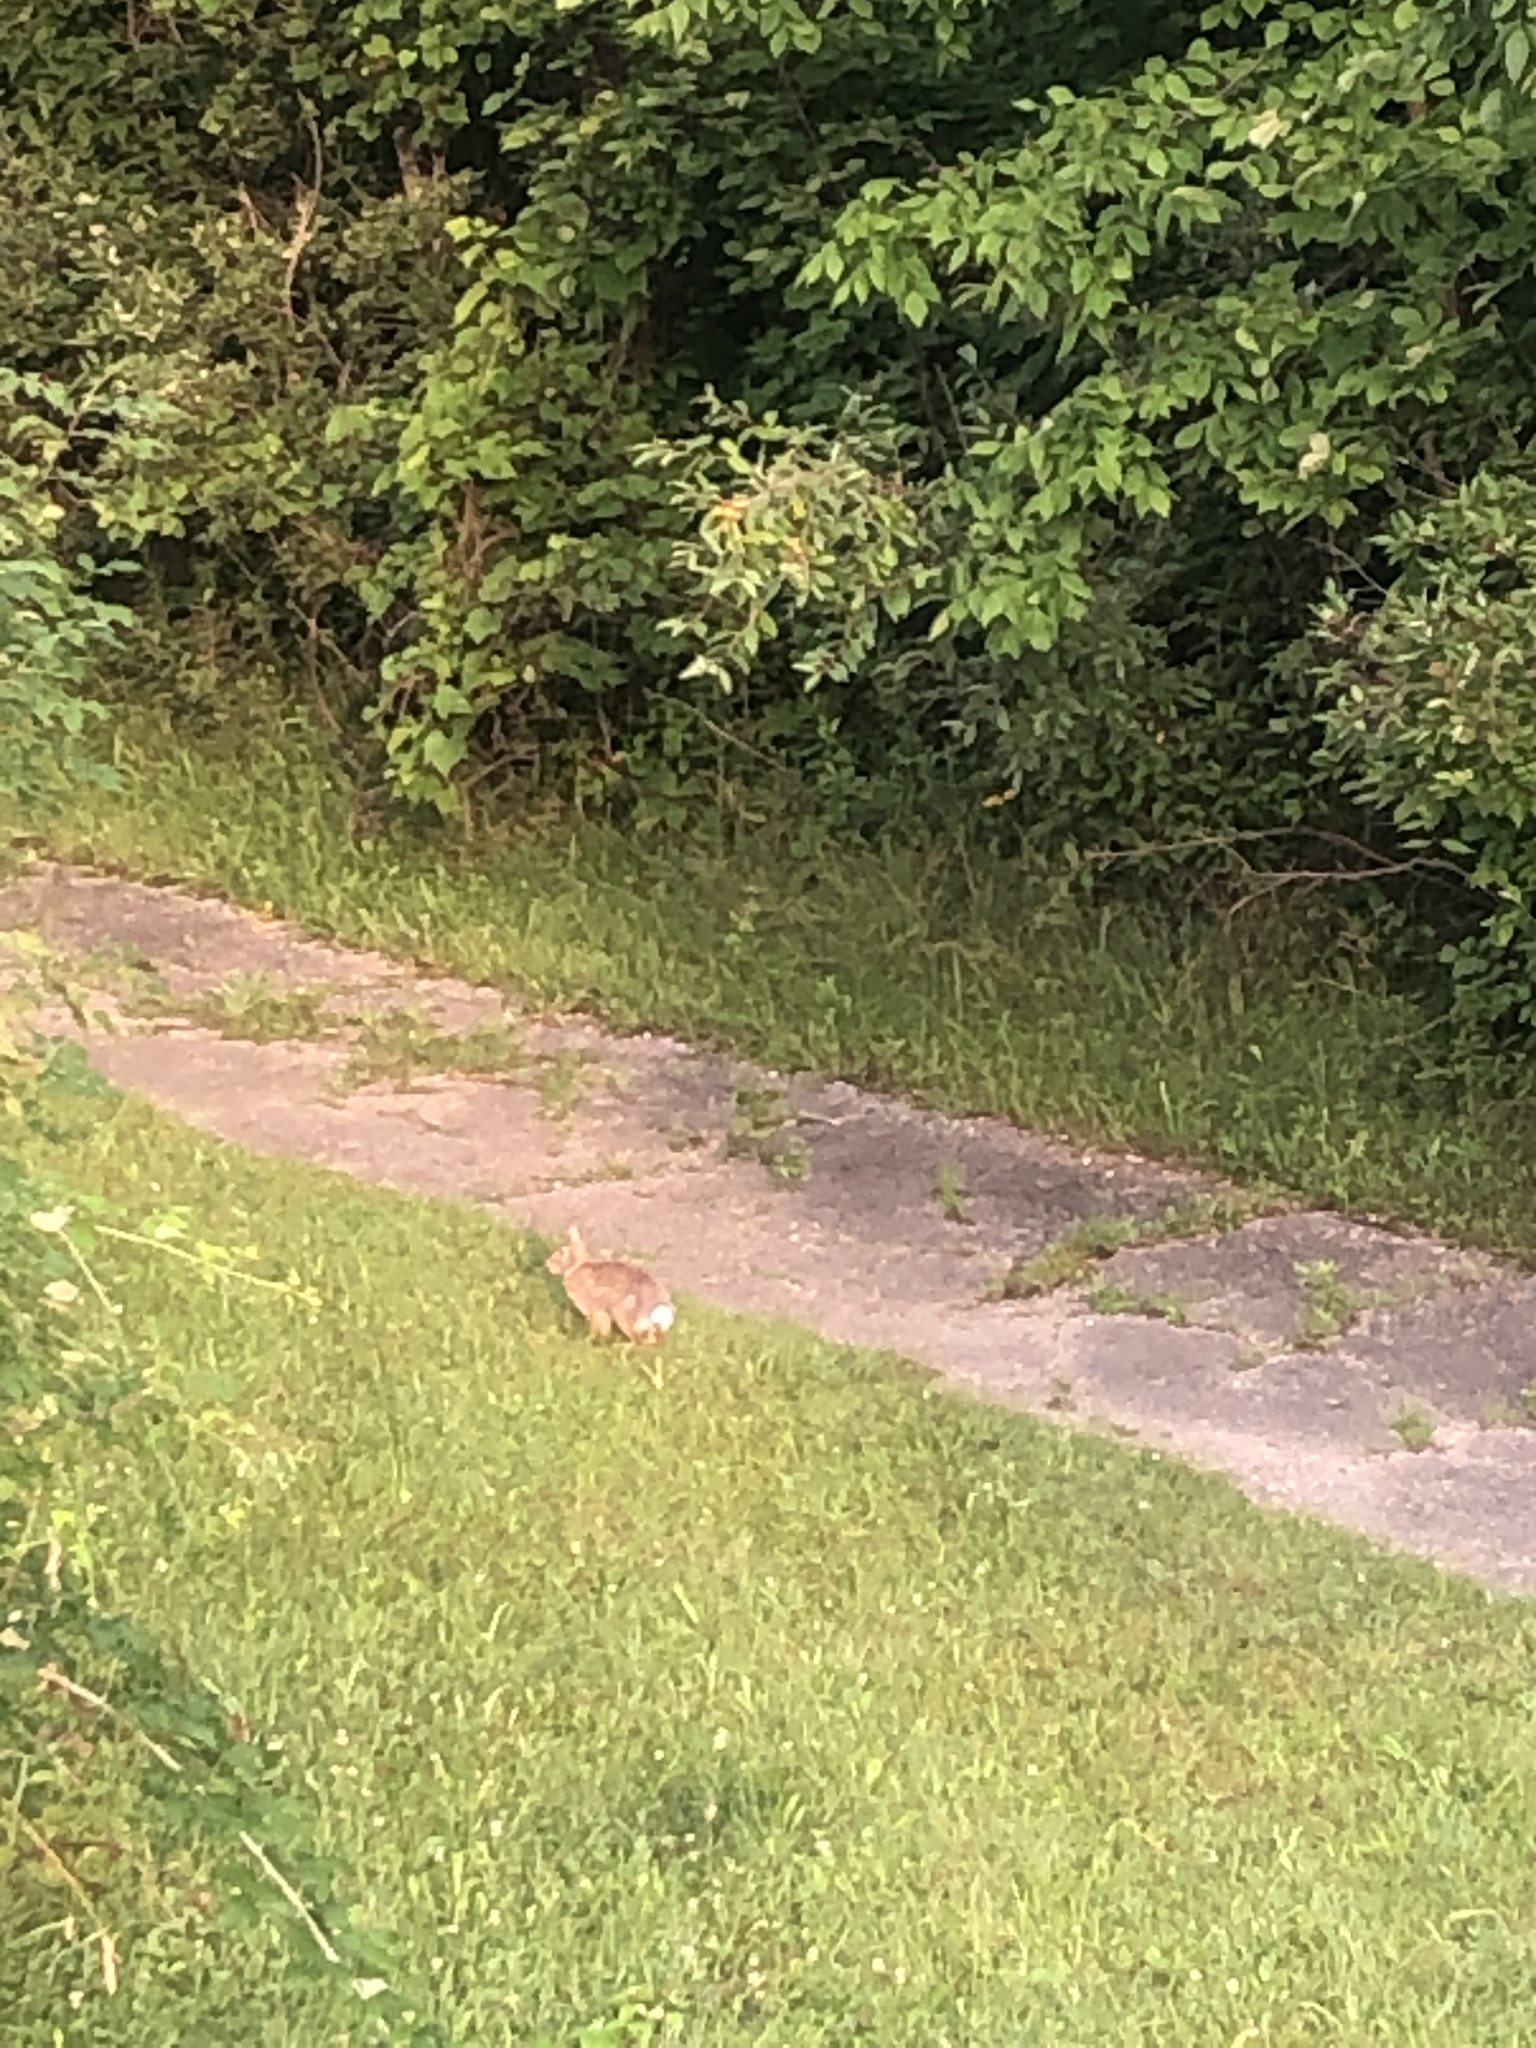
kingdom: Animalia
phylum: Chordata
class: Mammalia
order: Lagomorpha
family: Leporidae
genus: Sylvilagus
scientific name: Sylvilagus floridanus
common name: Eastern cottontail
